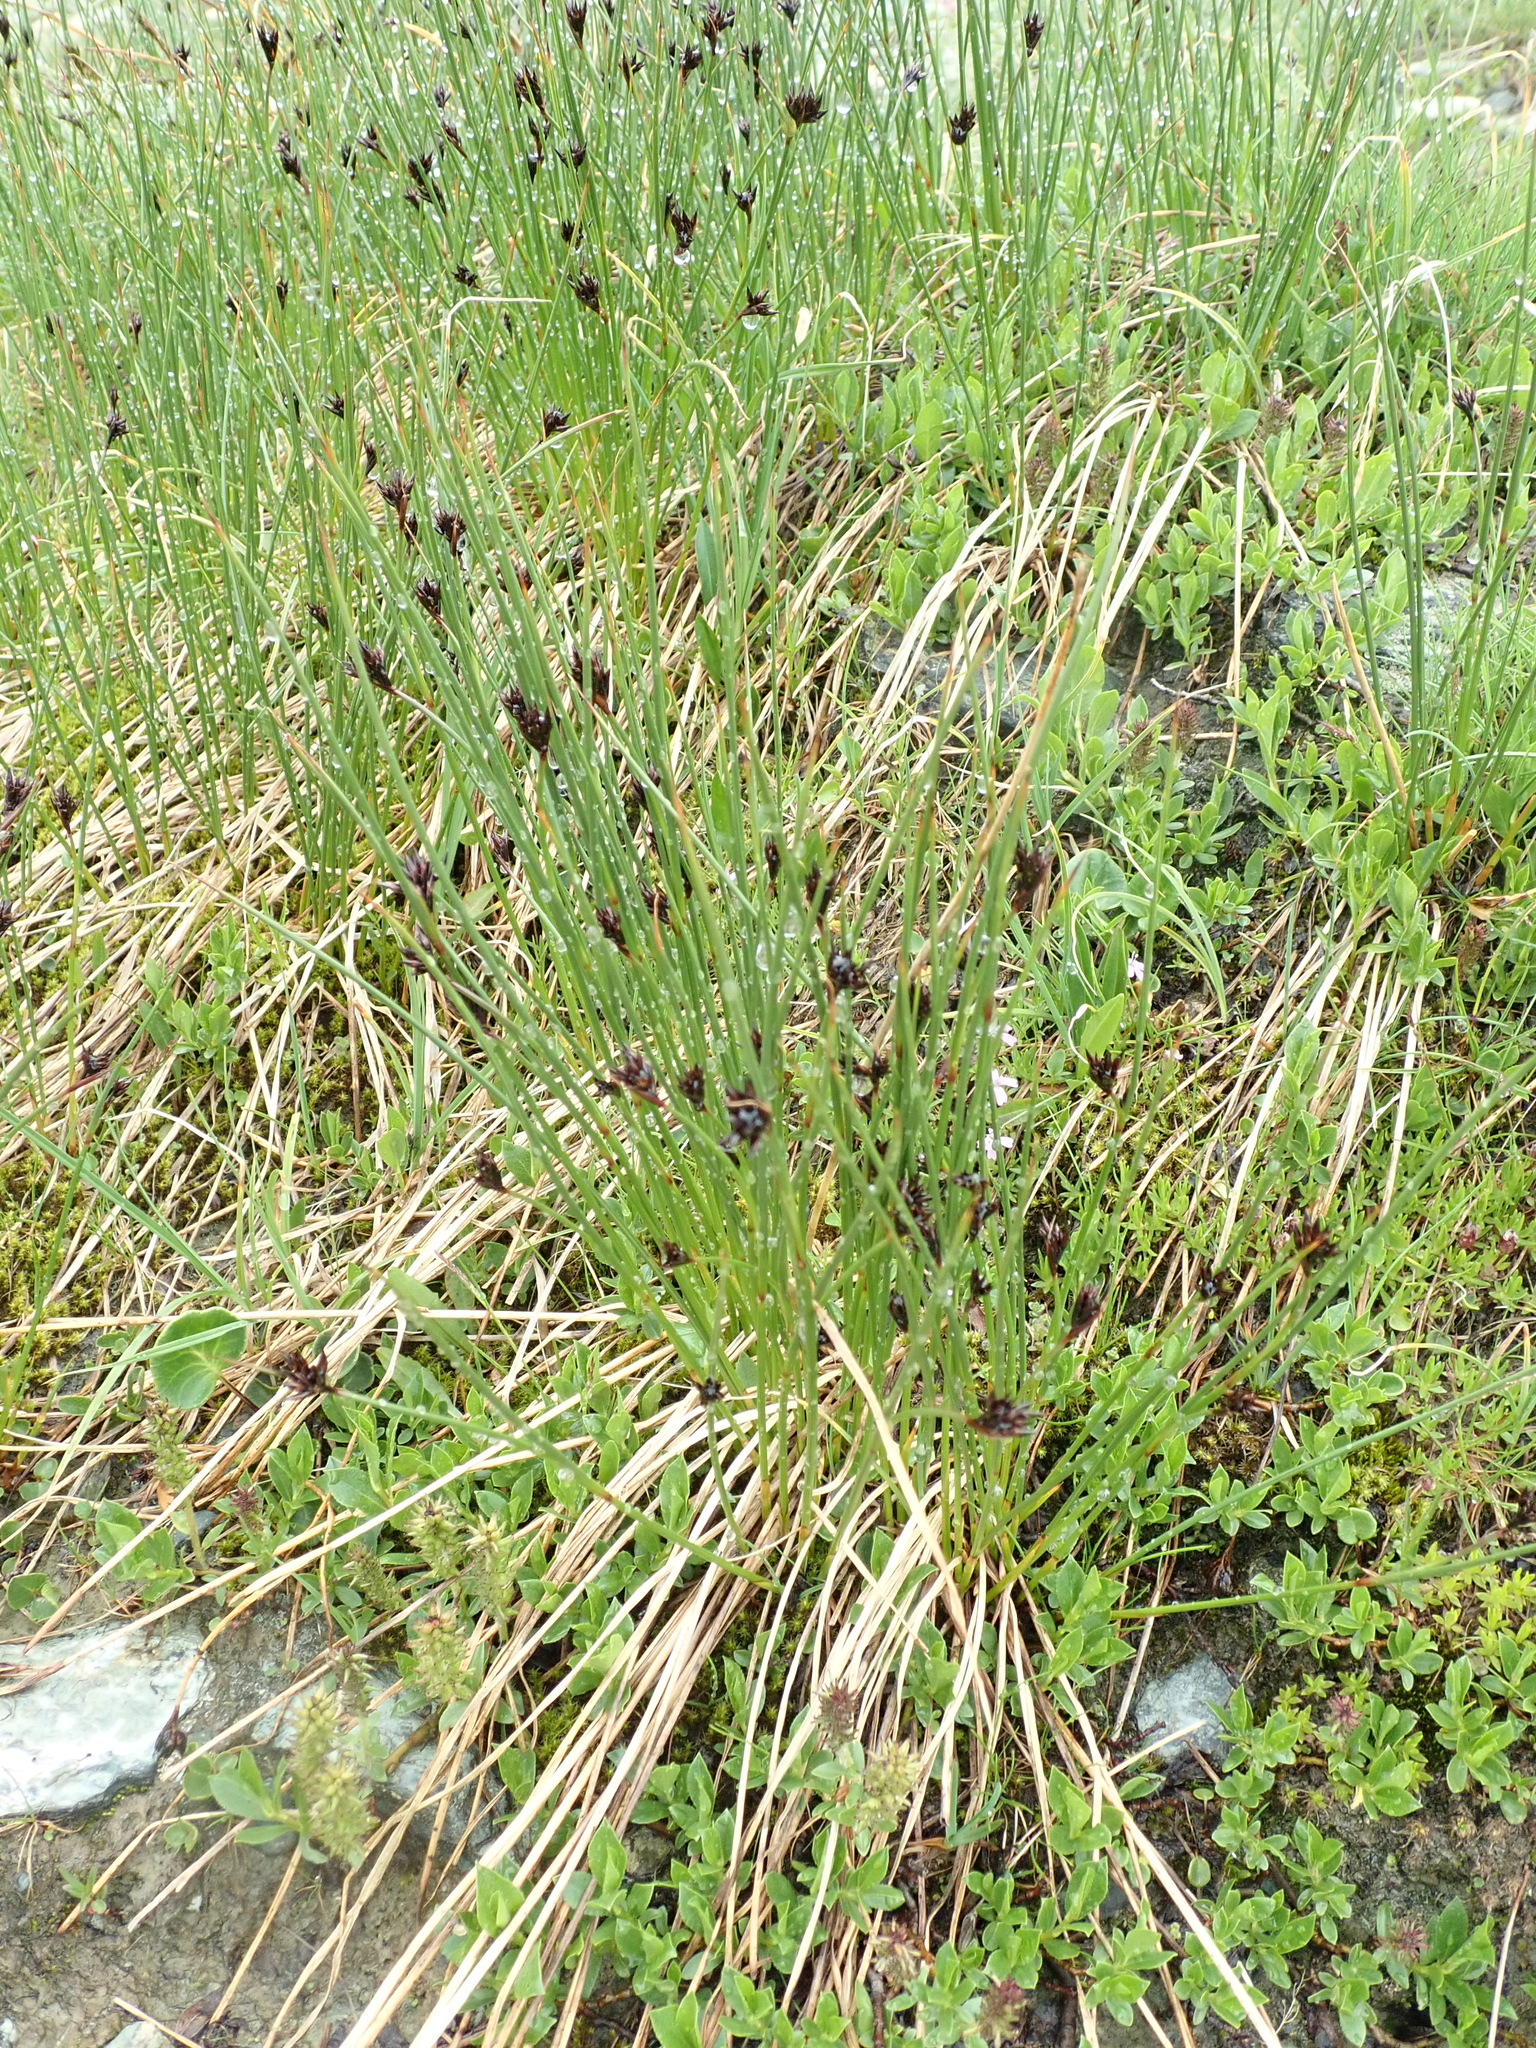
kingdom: Plantae
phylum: Tracheophyta
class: Liliopsida
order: Poales
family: Juncaceae
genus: Juncus
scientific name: Juncus jacquinii
